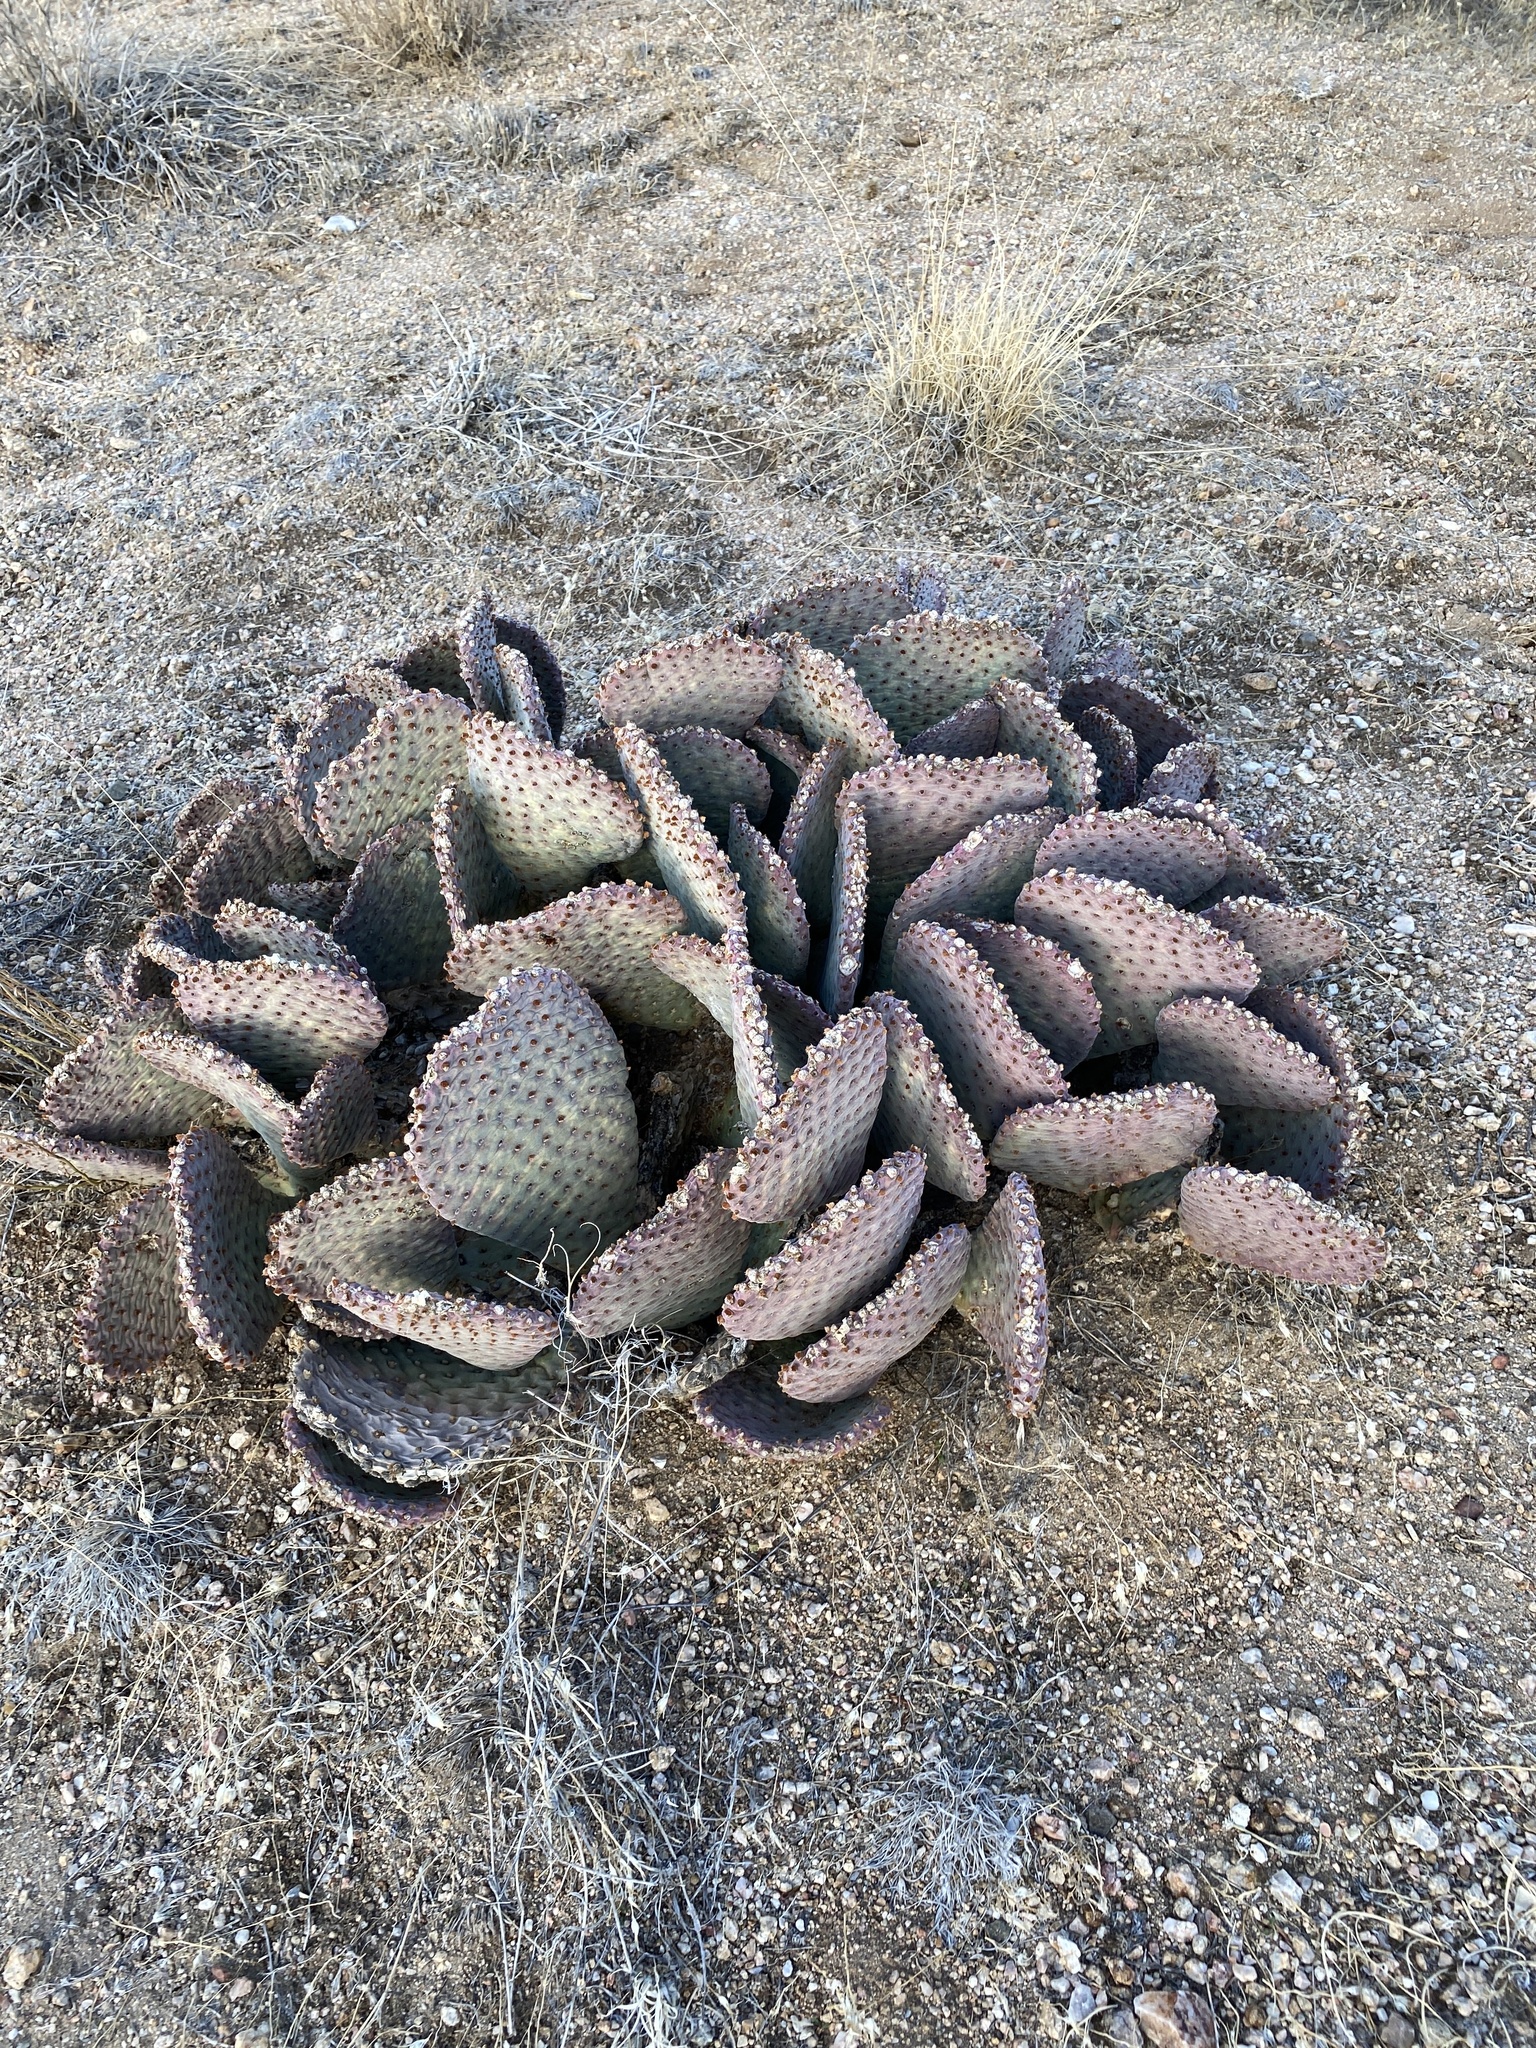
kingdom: Plantae
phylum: Tracheophyta
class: Magnoliopsida
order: Caryophyllales
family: Cactaceae
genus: Opuntia
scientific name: Opuntia basilaris
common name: Beavertail prickly-pear
